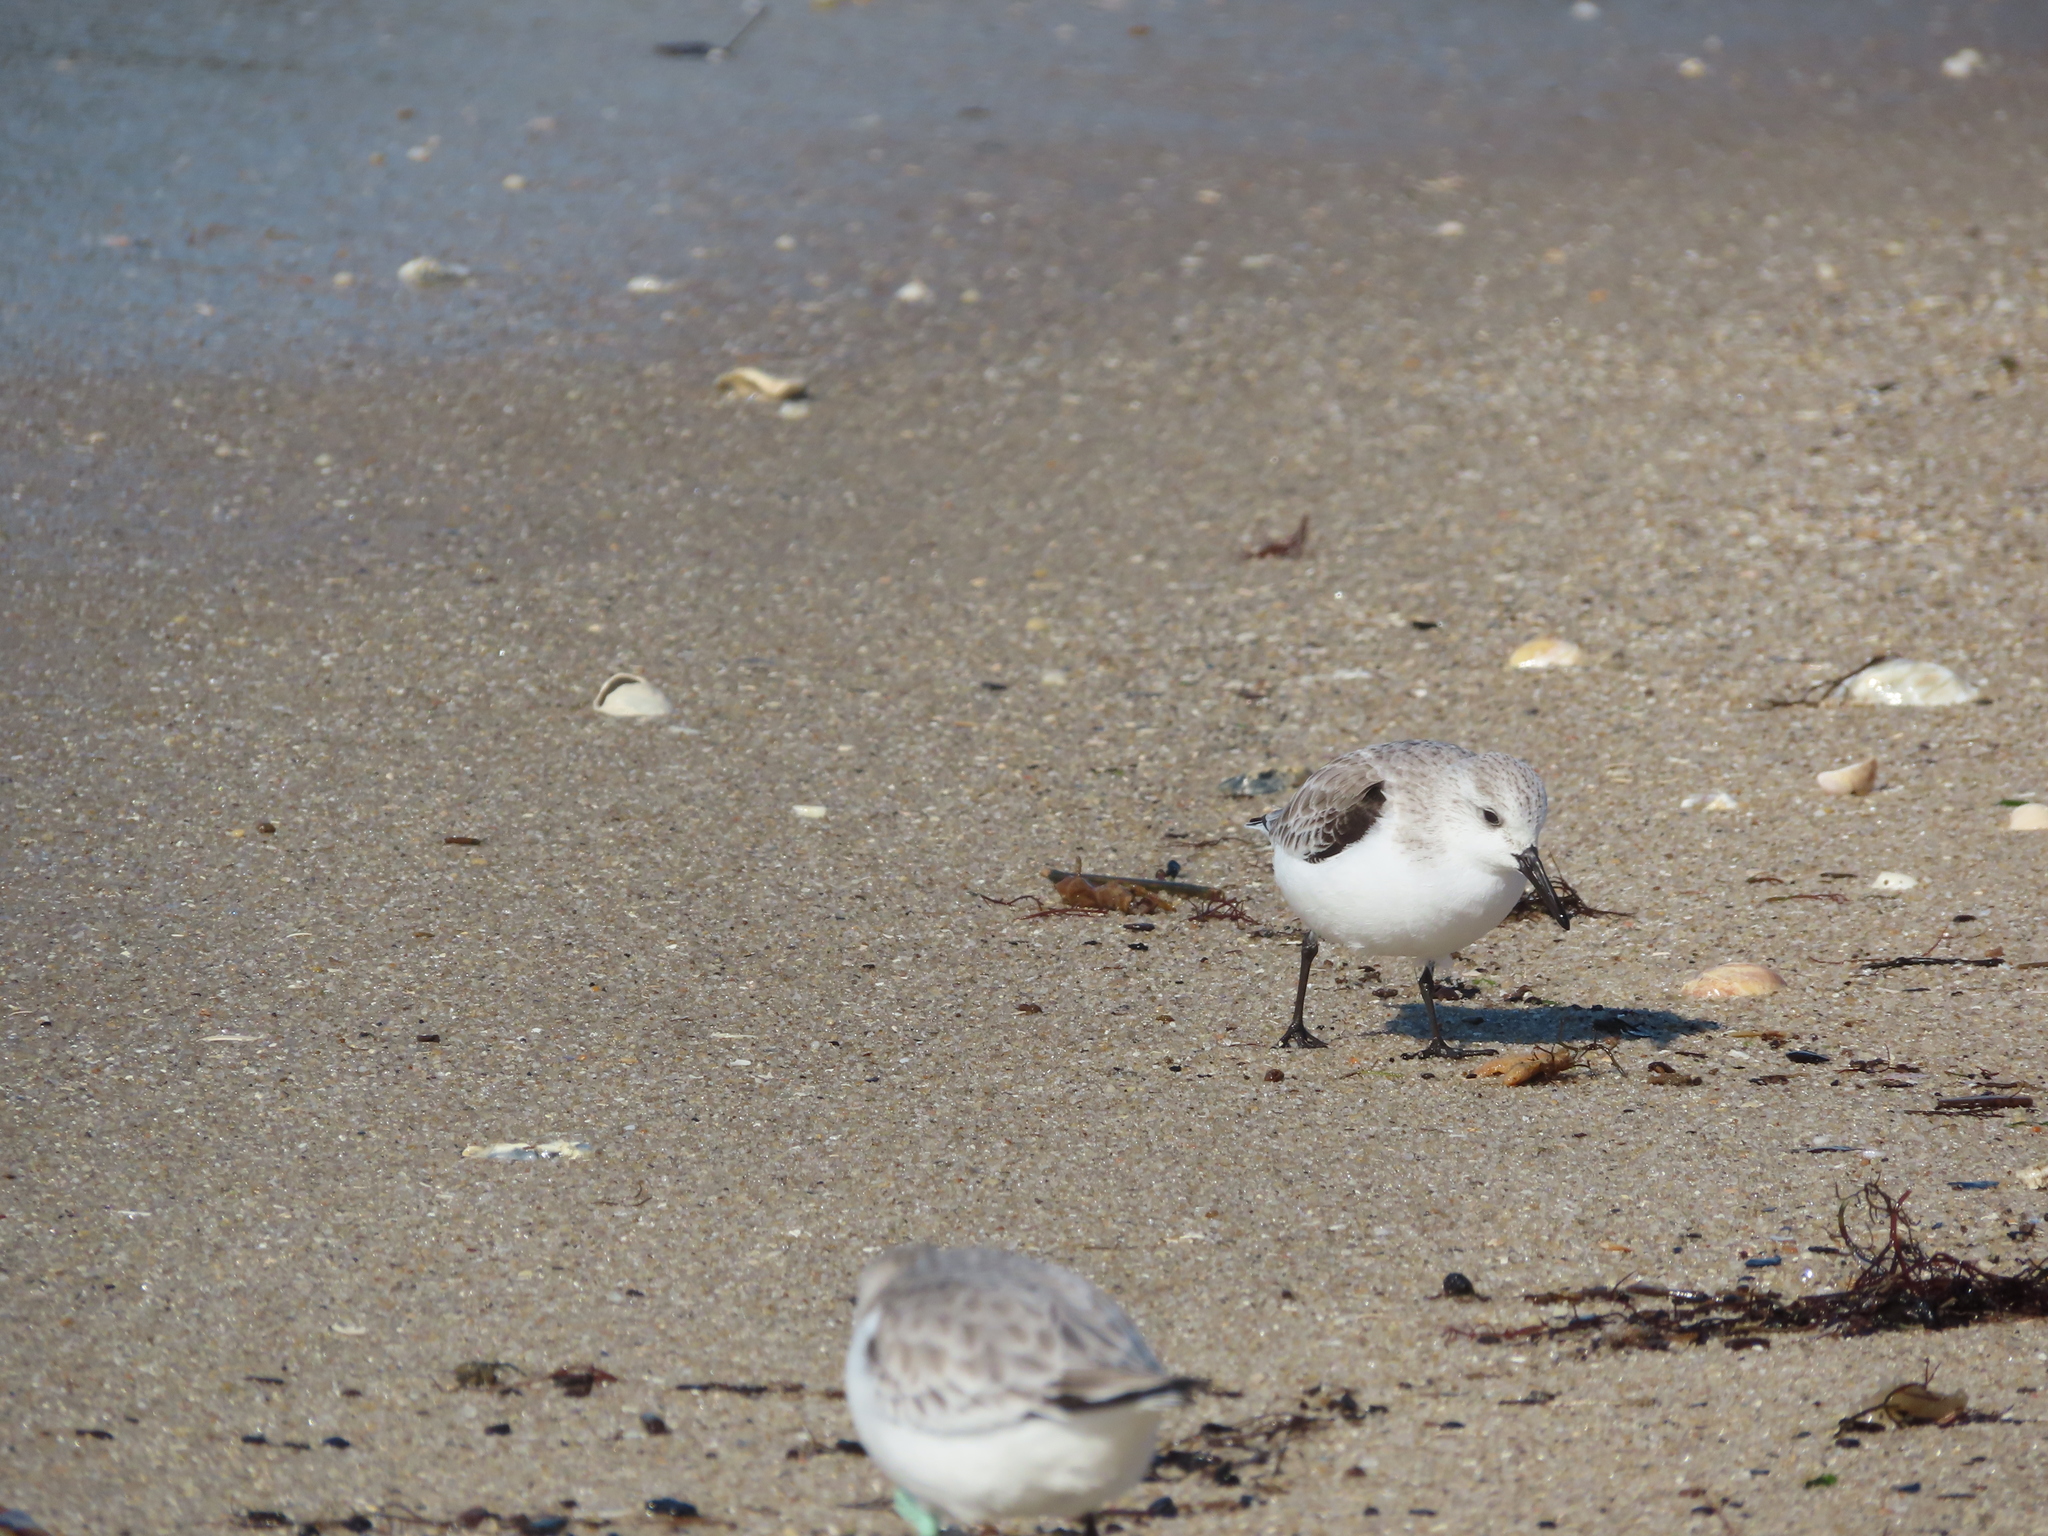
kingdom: Animalia
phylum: Chordata
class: Aves
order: Charadriiformes
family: Scolopacidae
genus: Calidris
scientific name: Calidris alba
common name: Sanderling
